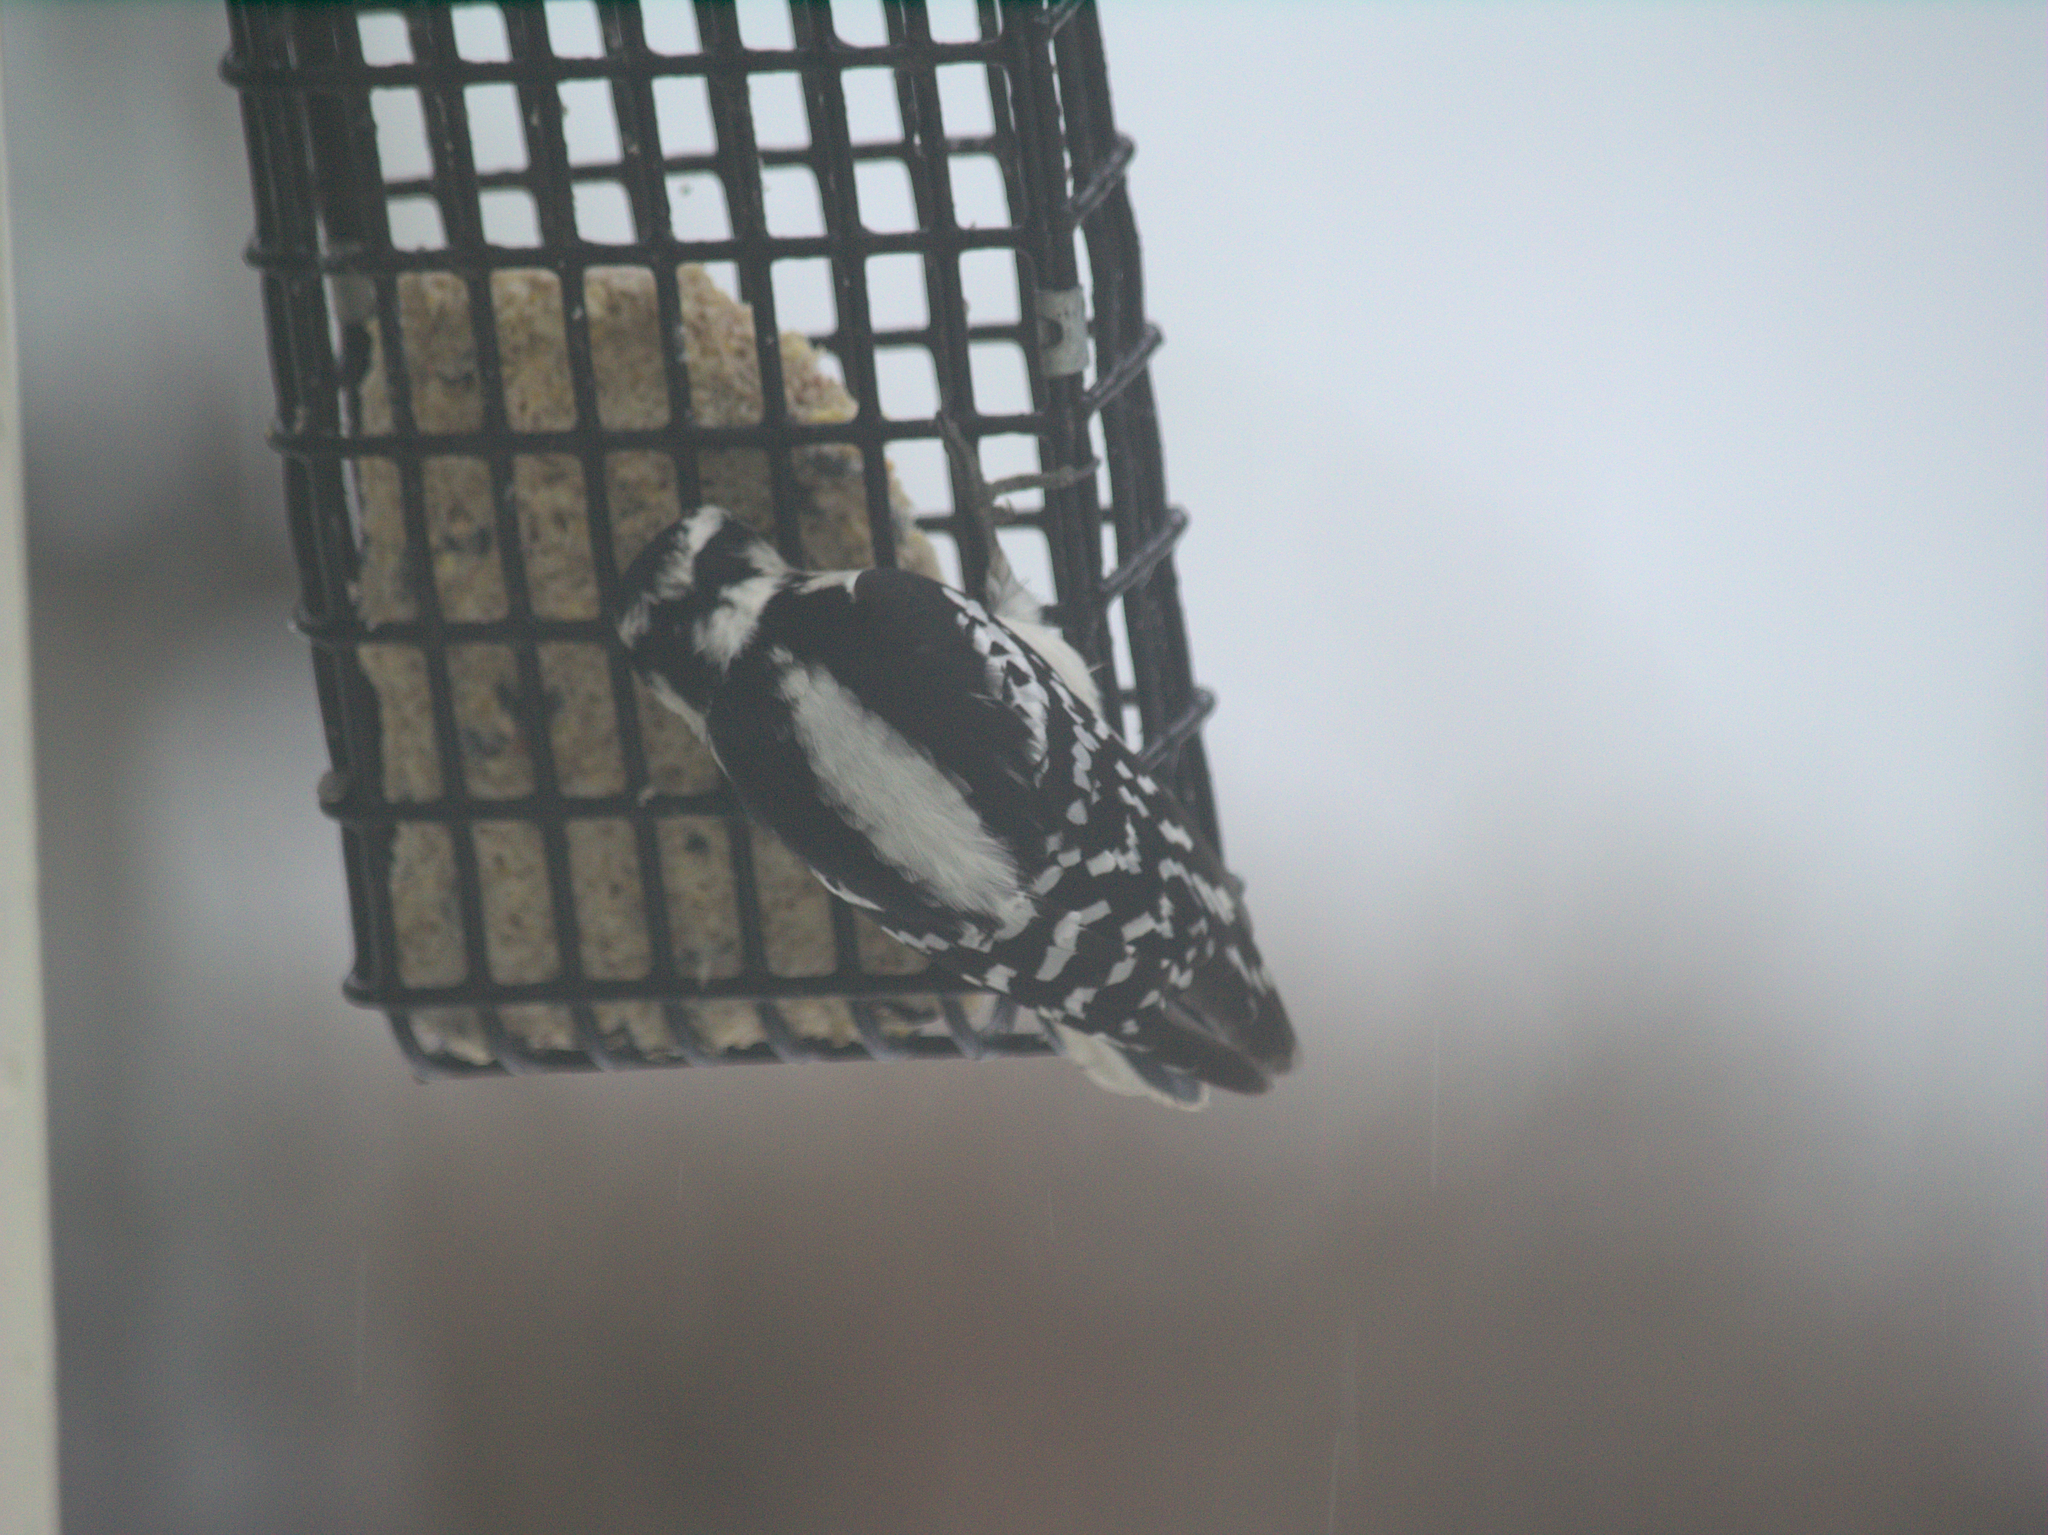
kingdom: Animalia
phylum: Chordata
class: Aves
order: Piciformes
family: Picidae
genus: Dryobates
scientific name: Dryobates pubescens
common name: Downy woodpecker
